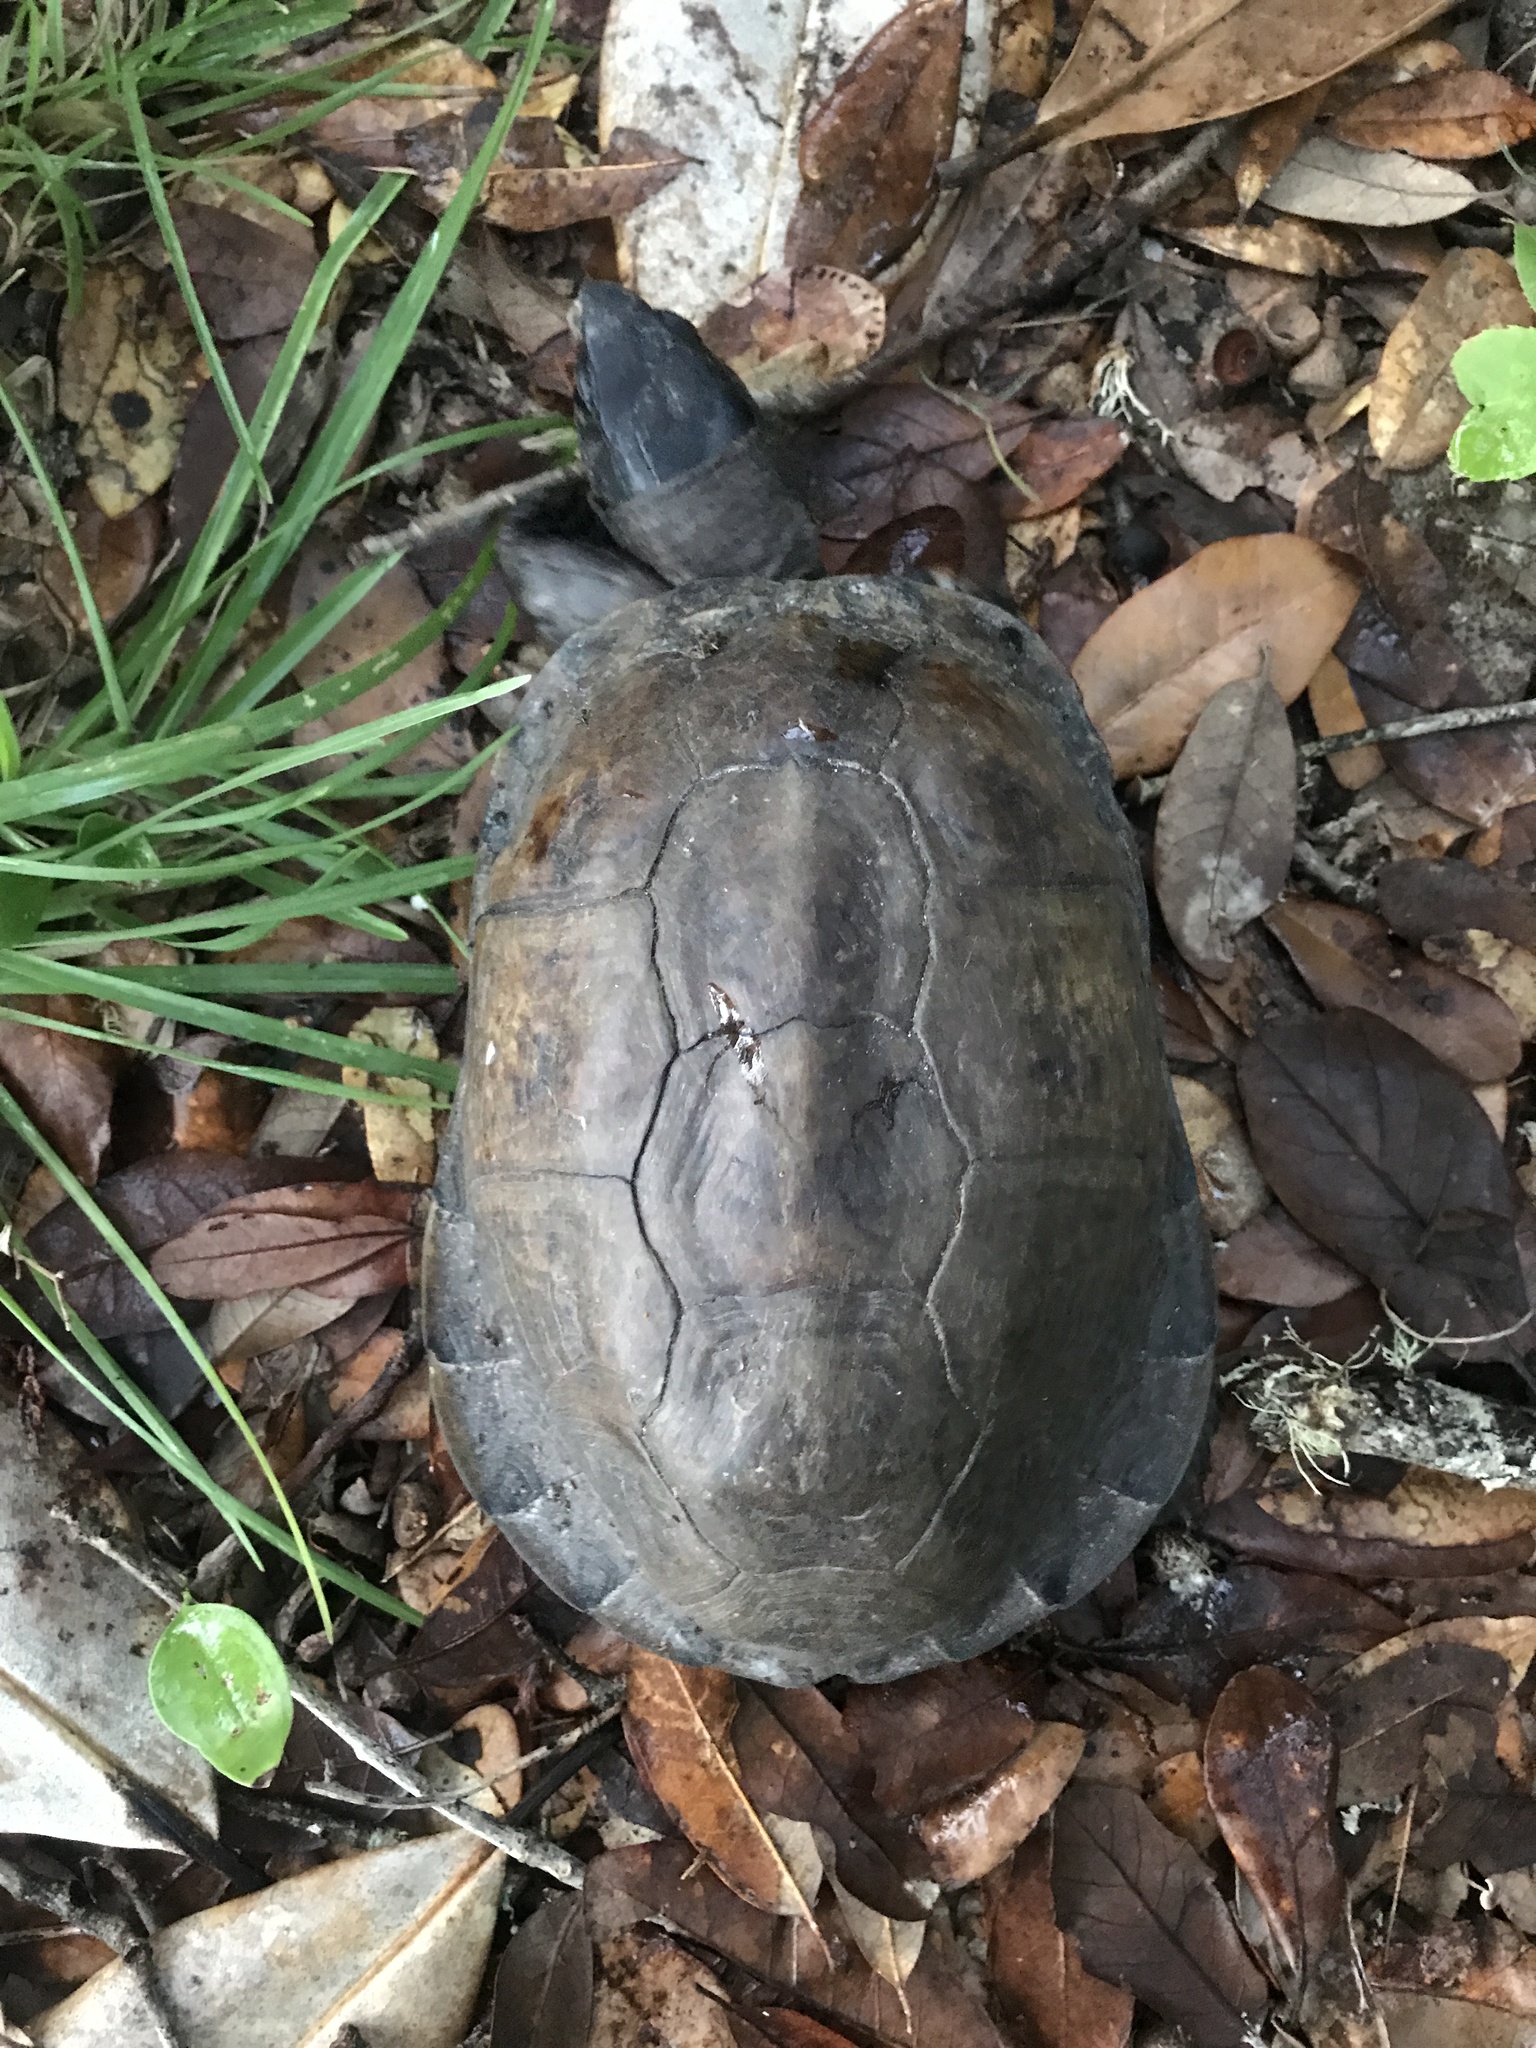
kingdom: Animalia
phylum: Chordata
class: Testudines
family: Emydidae
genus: Terrapene
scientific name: Terrapene carolina
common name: Common box turtle
